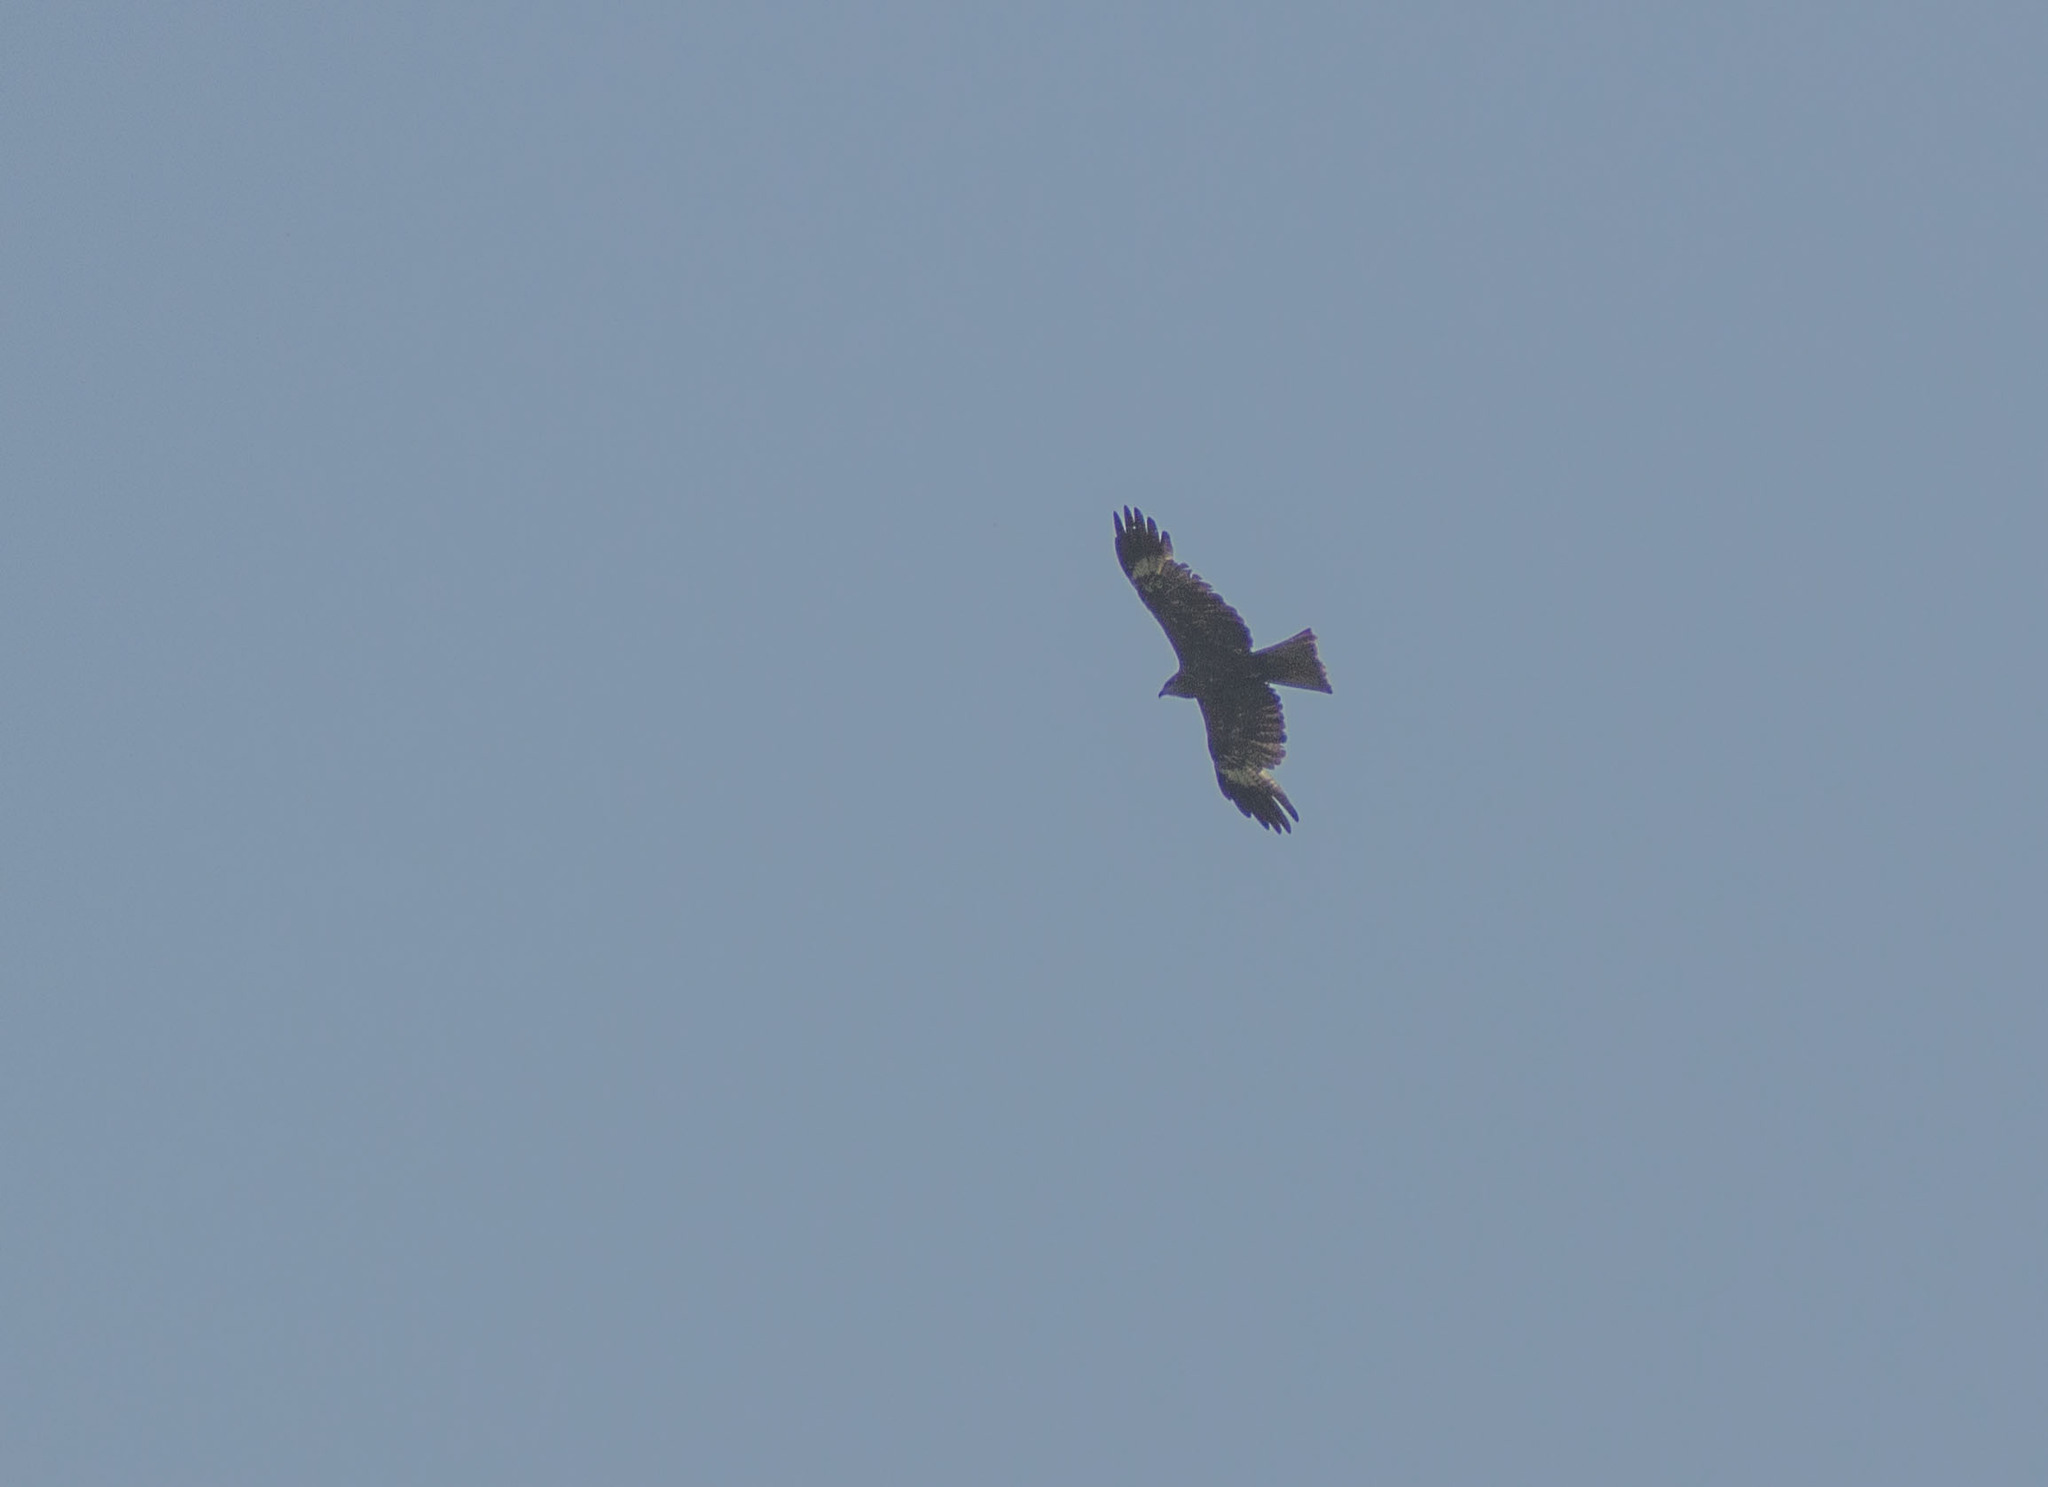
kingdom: Animalia
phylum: Chordata
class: Aves
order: Accipitriformes
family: Accipitridae
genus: Milvus
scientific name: Milvus migrans
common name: Black kite
